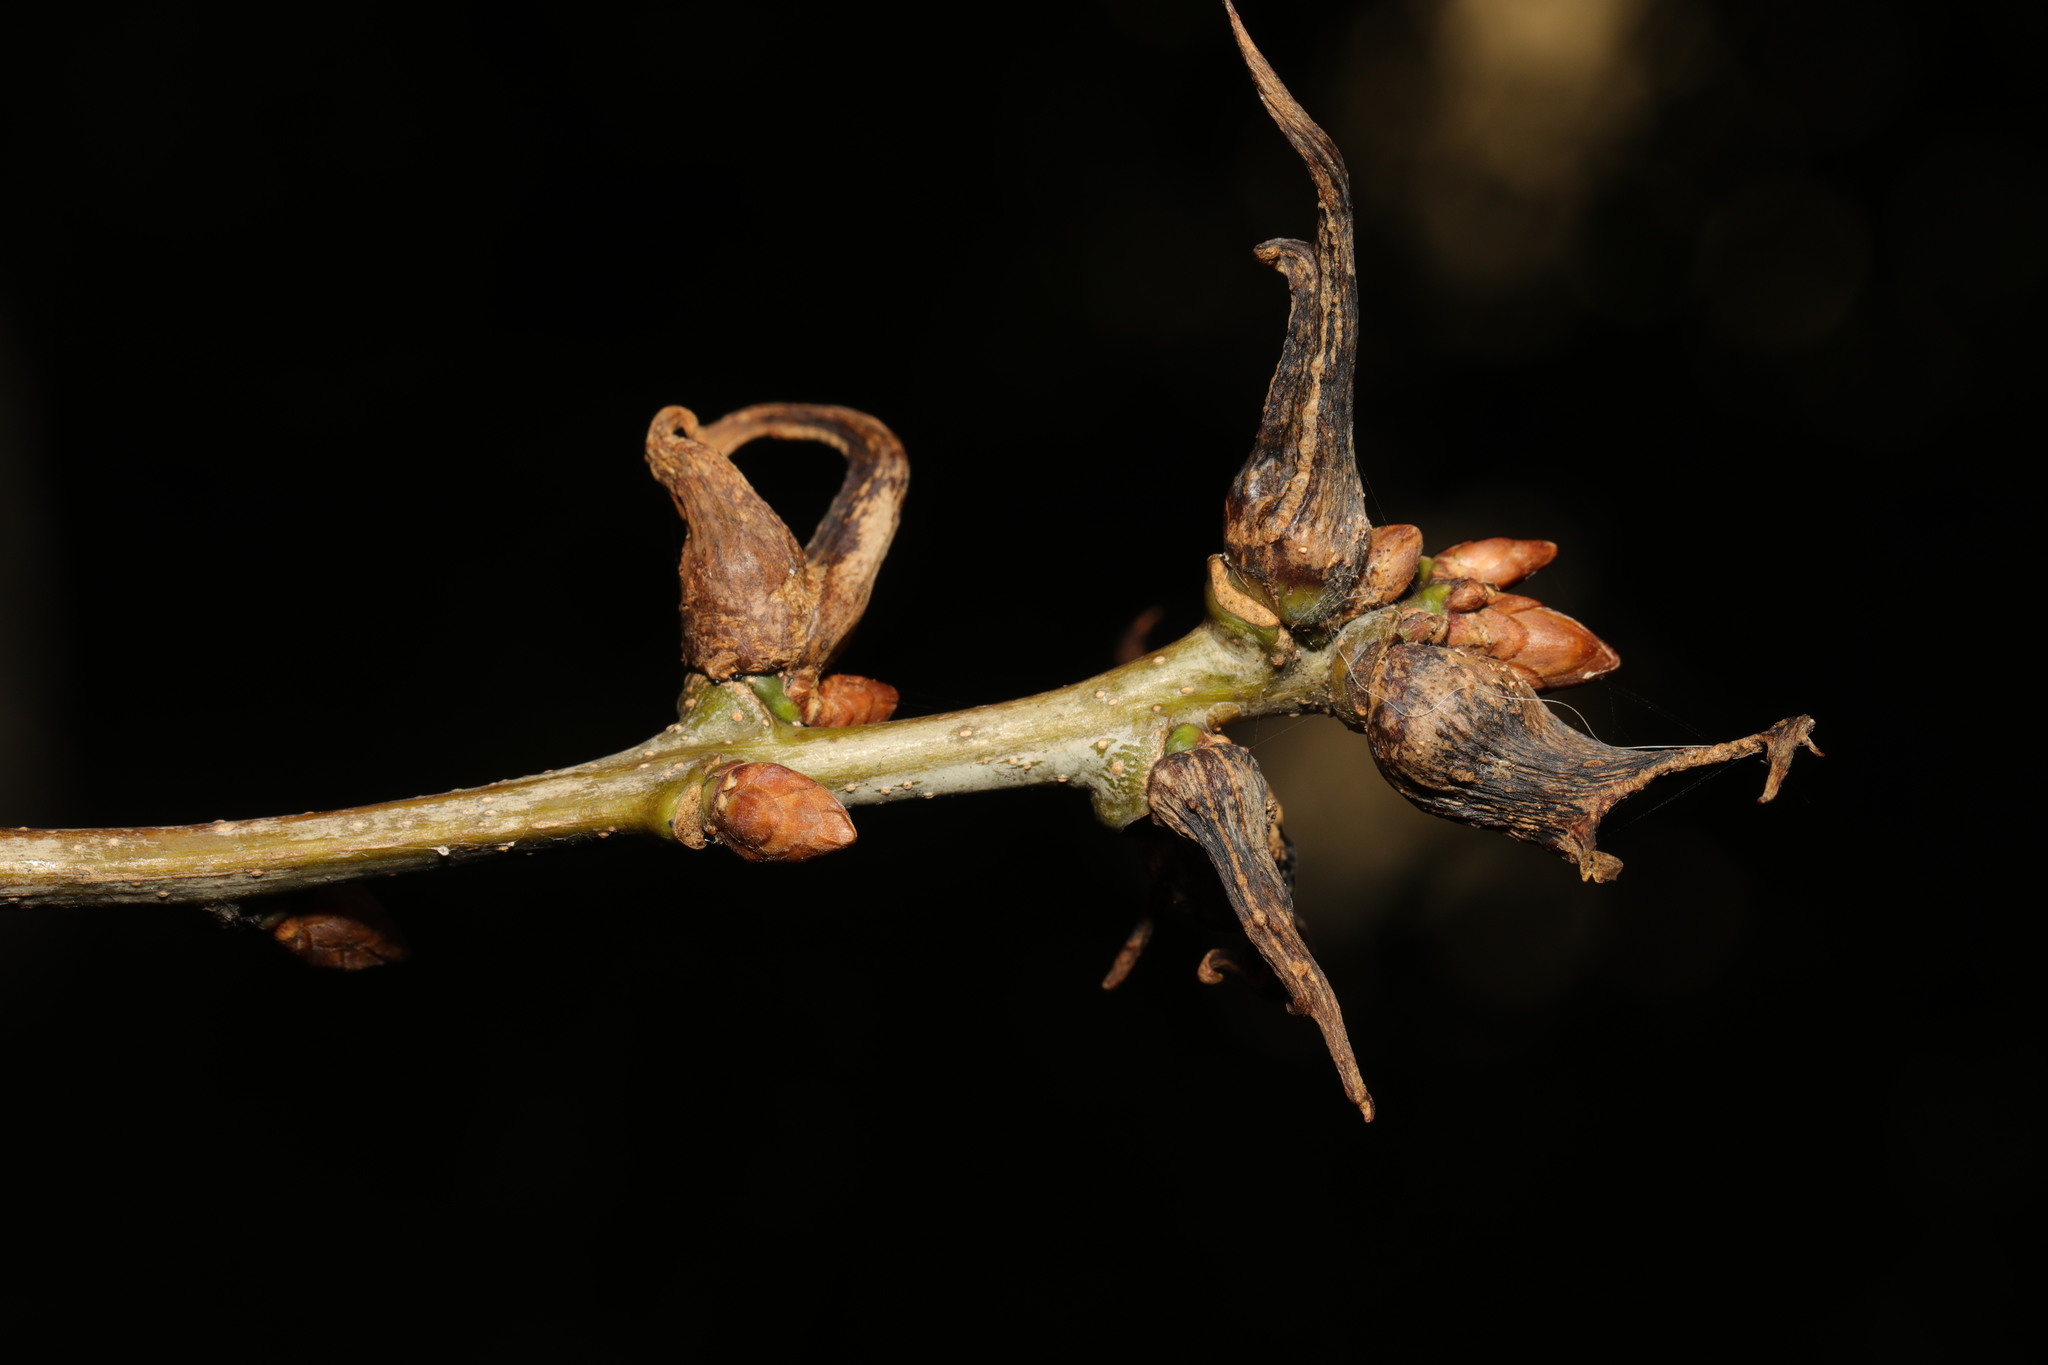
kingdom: Animalia
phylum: Arthropoda
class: Insecta
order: Hymenoptera
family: Cynipidae
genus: Andricus
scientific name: Andricus aries
